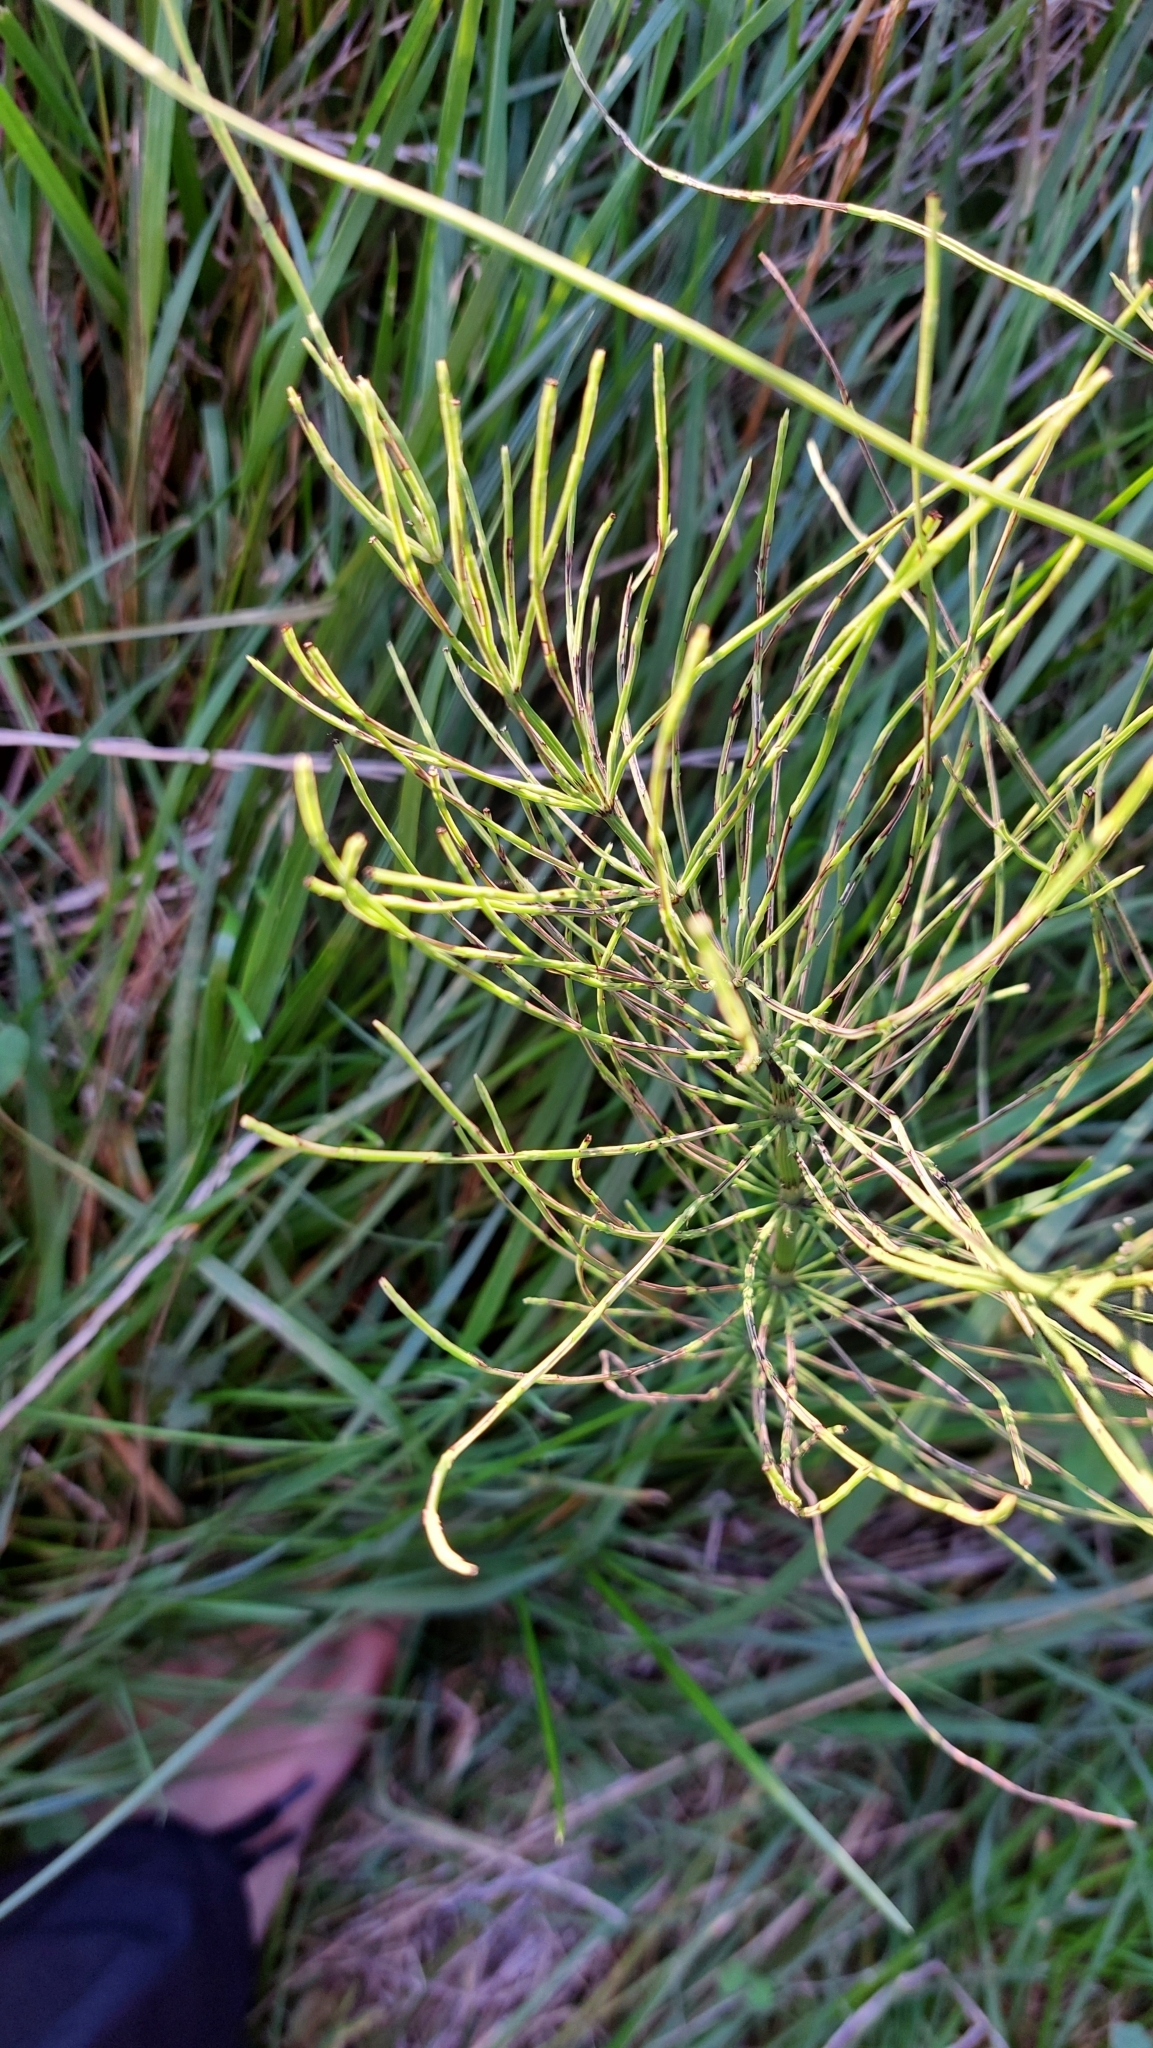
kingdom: Plantae
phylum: Tracheophyta
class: Polypodiopsida
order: Equisetales
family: Equisetaceae
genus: Equisetum
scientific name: Equisetum arvense
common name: Field horsetail
